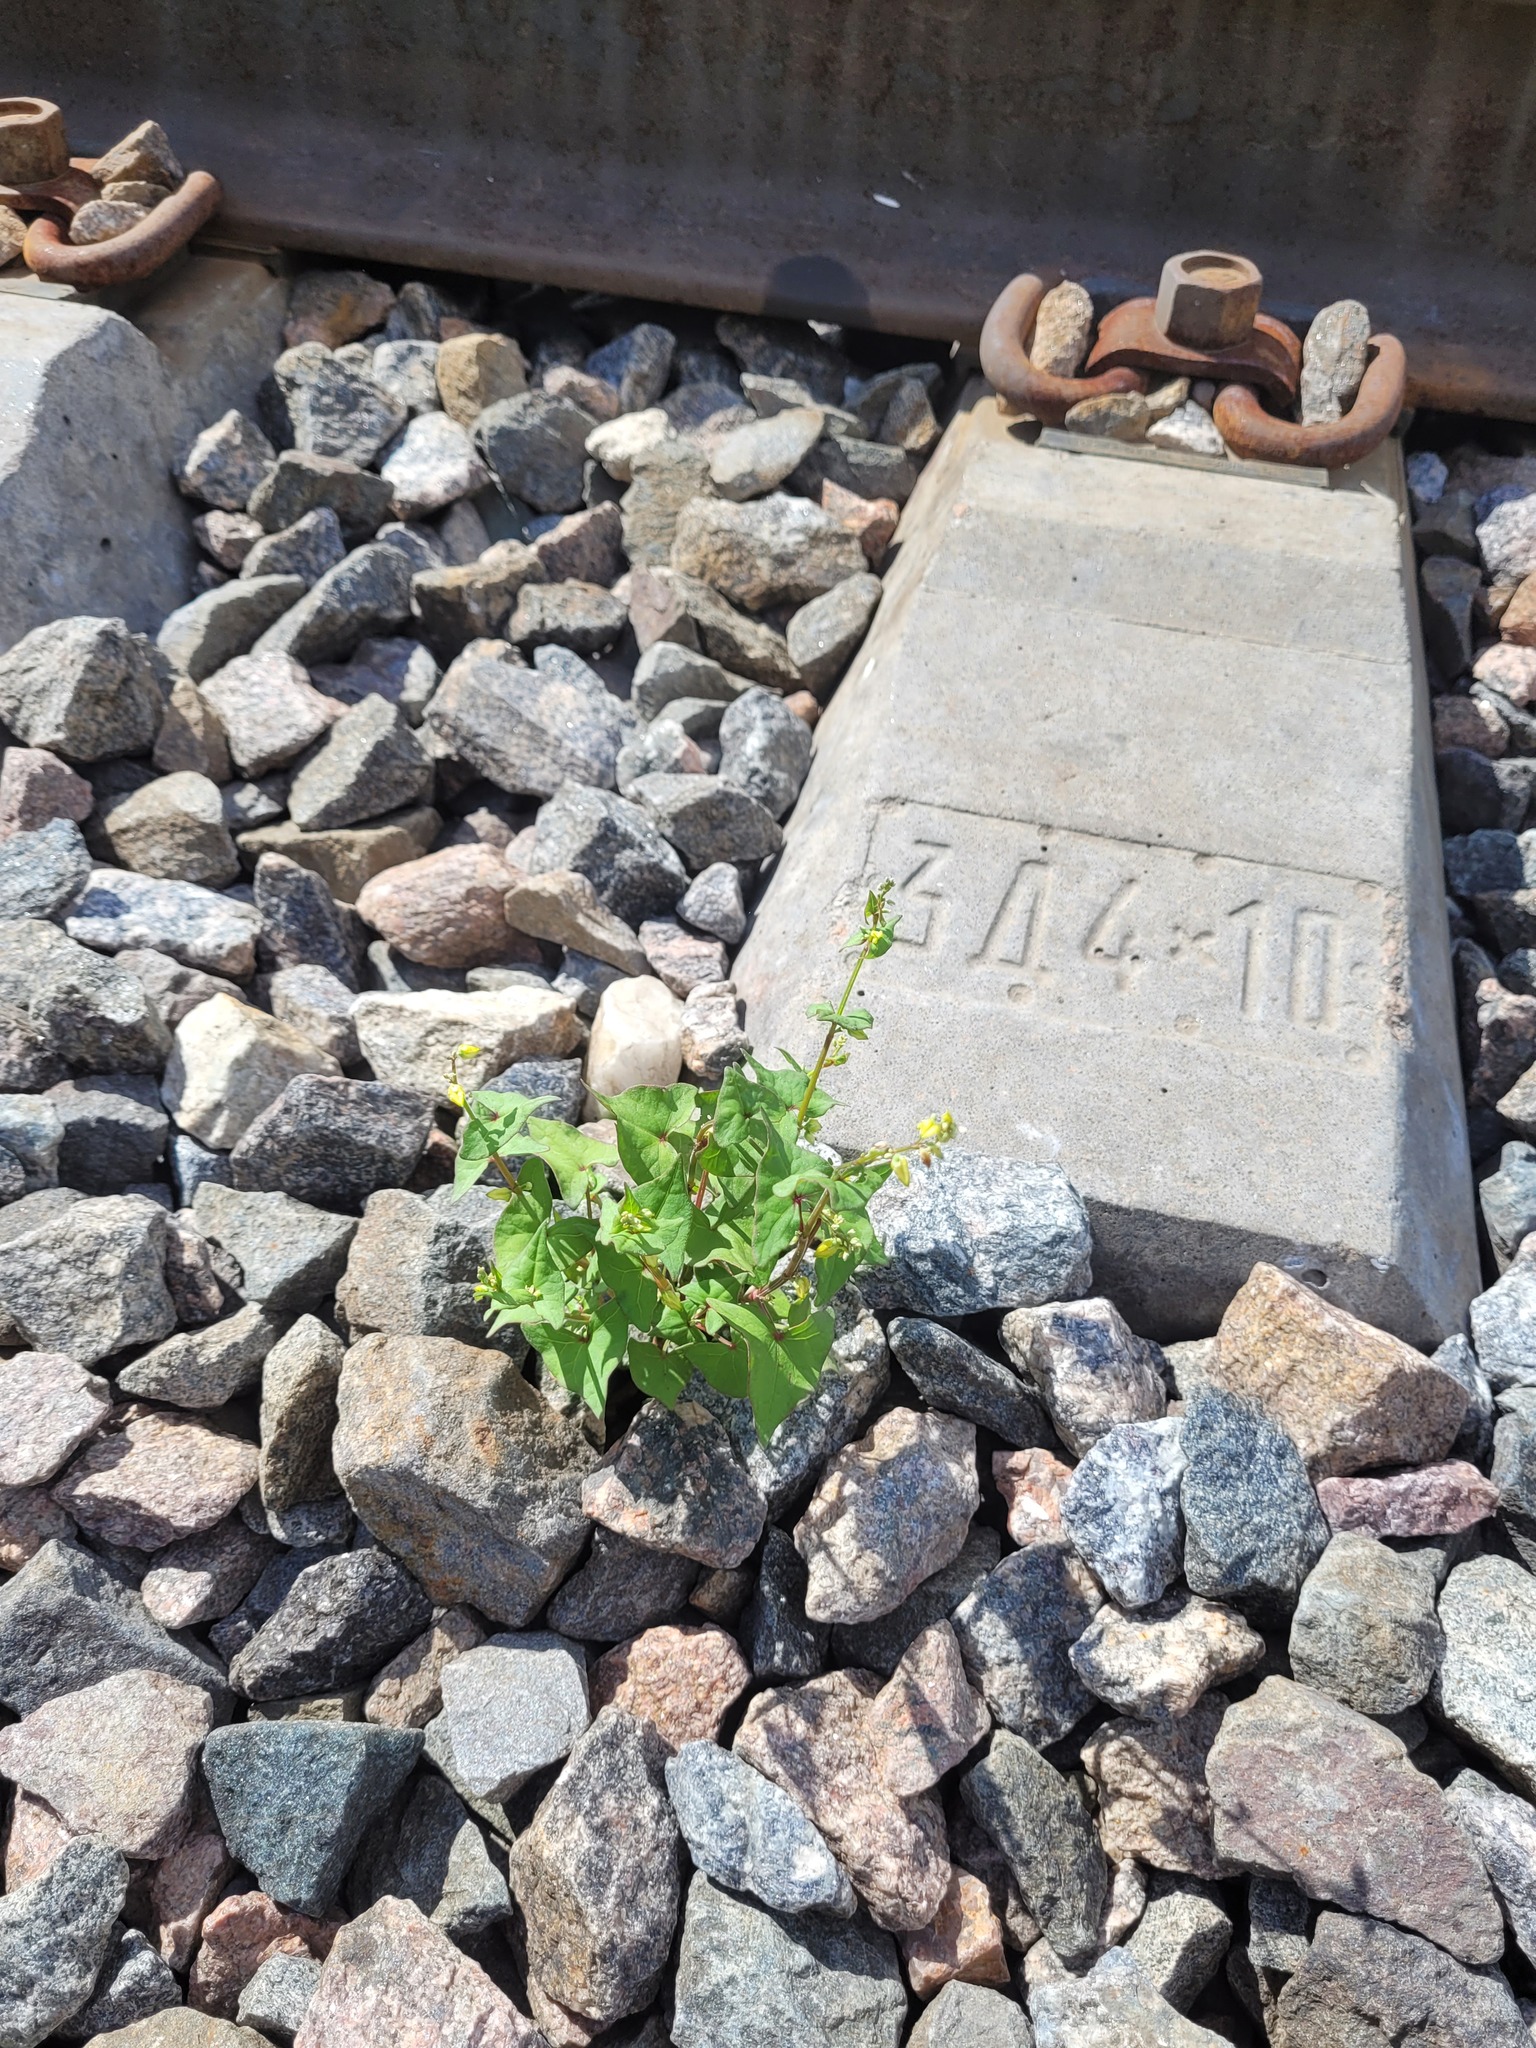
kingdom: Plantae
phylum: Tracheophyta
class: Magnoliopsida
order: Caryophyllales
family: Polygonaceae
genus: Fagopyrum
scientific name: Fagopyrum tataricum
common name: Green buckwheat
